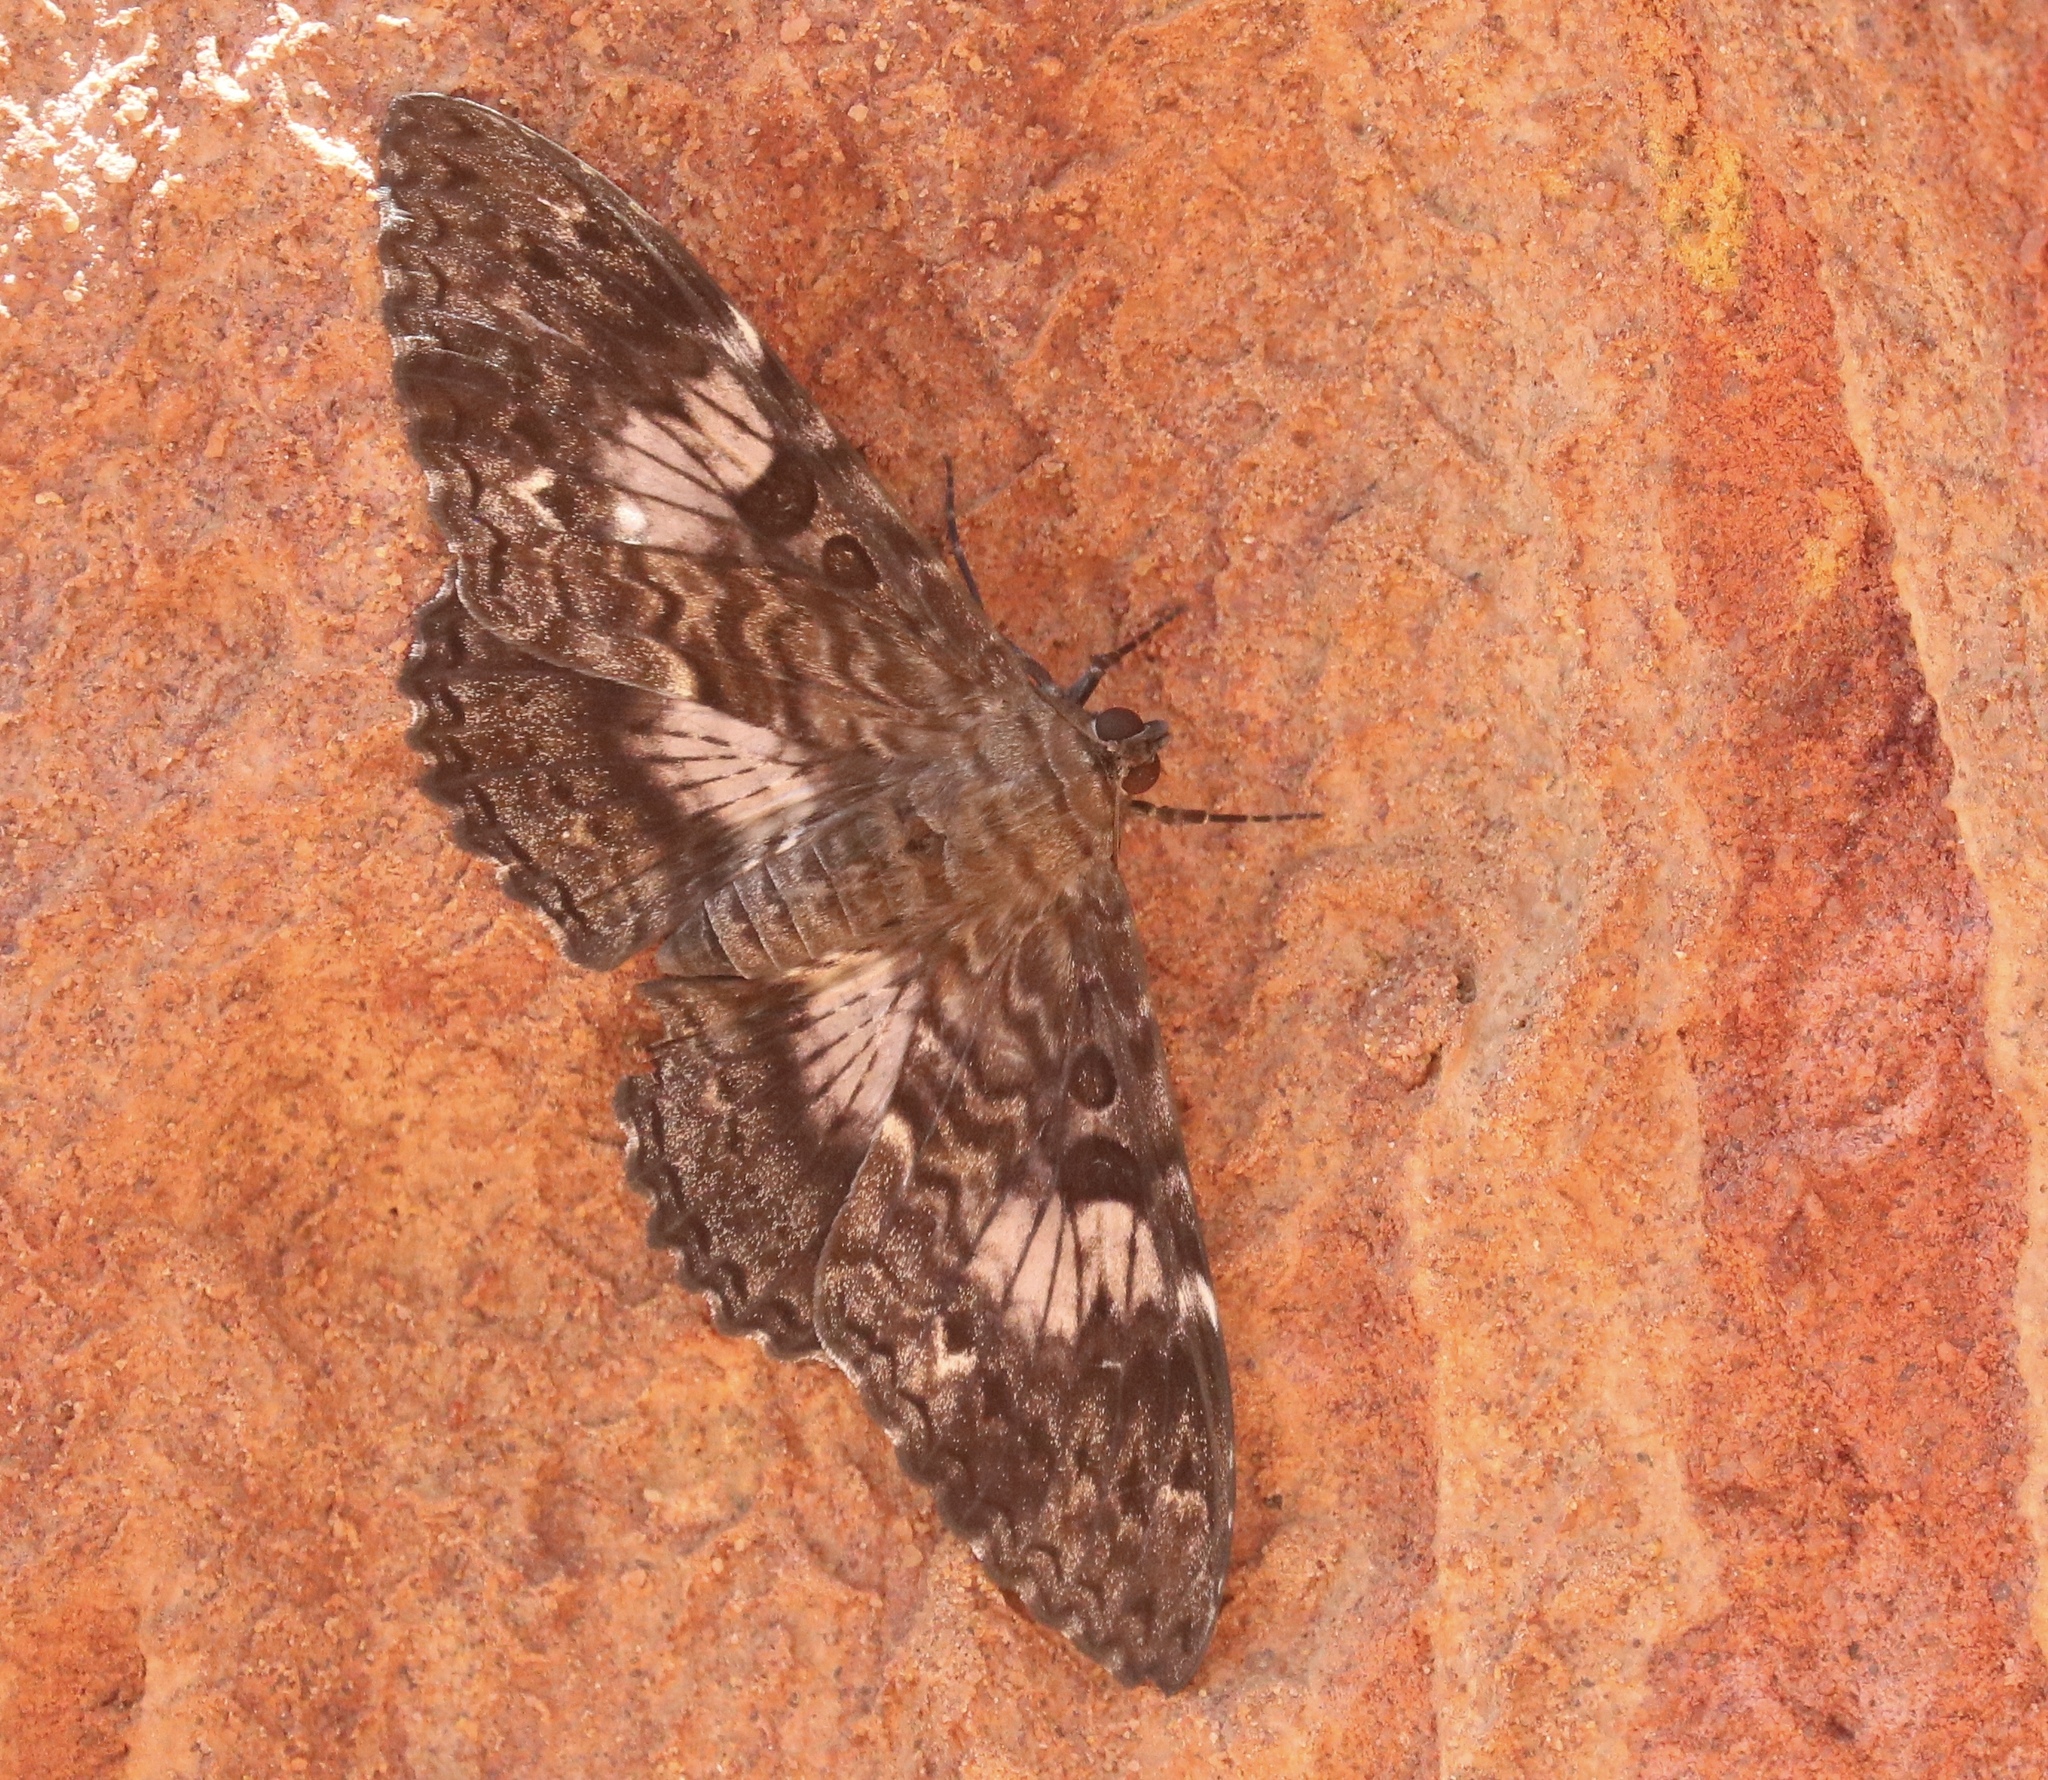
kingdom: Animalia
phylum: Arthropoda
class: Insecta
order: Lepidoptera
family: Erebidae
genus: Letis
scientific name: Letis specularis
